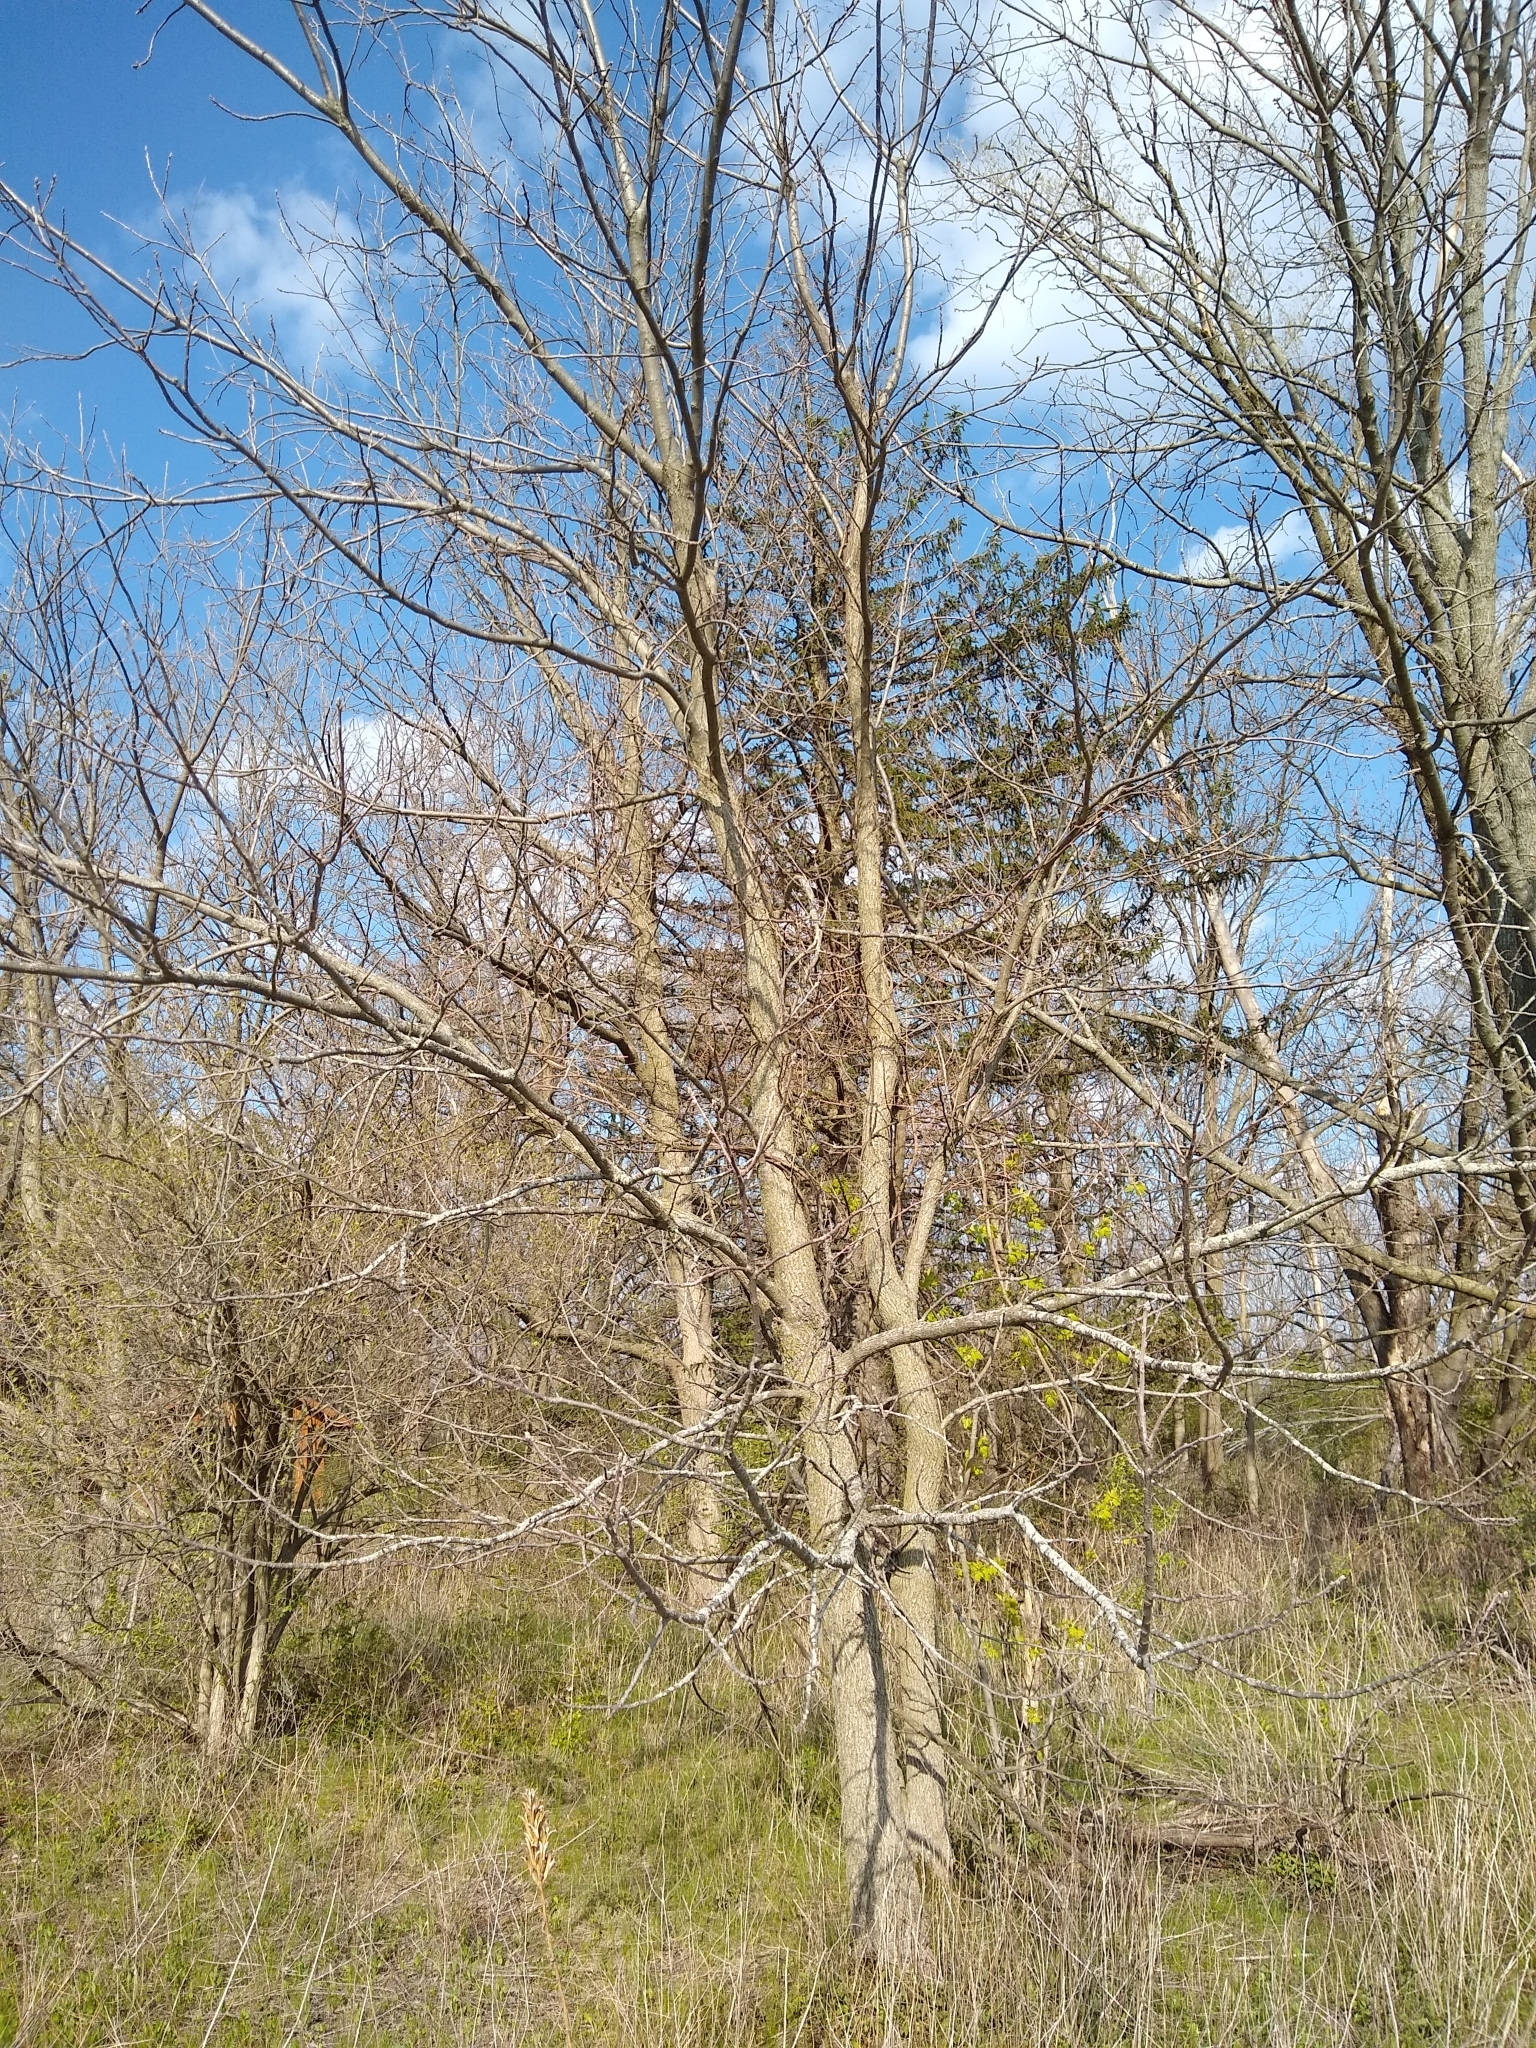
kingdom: Plantae
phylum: Tracheophyta
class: Magnoliopsida
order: Fagales
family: Juglandaceae
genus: Juglans
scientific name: Juglans nigra
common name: Black walnut
